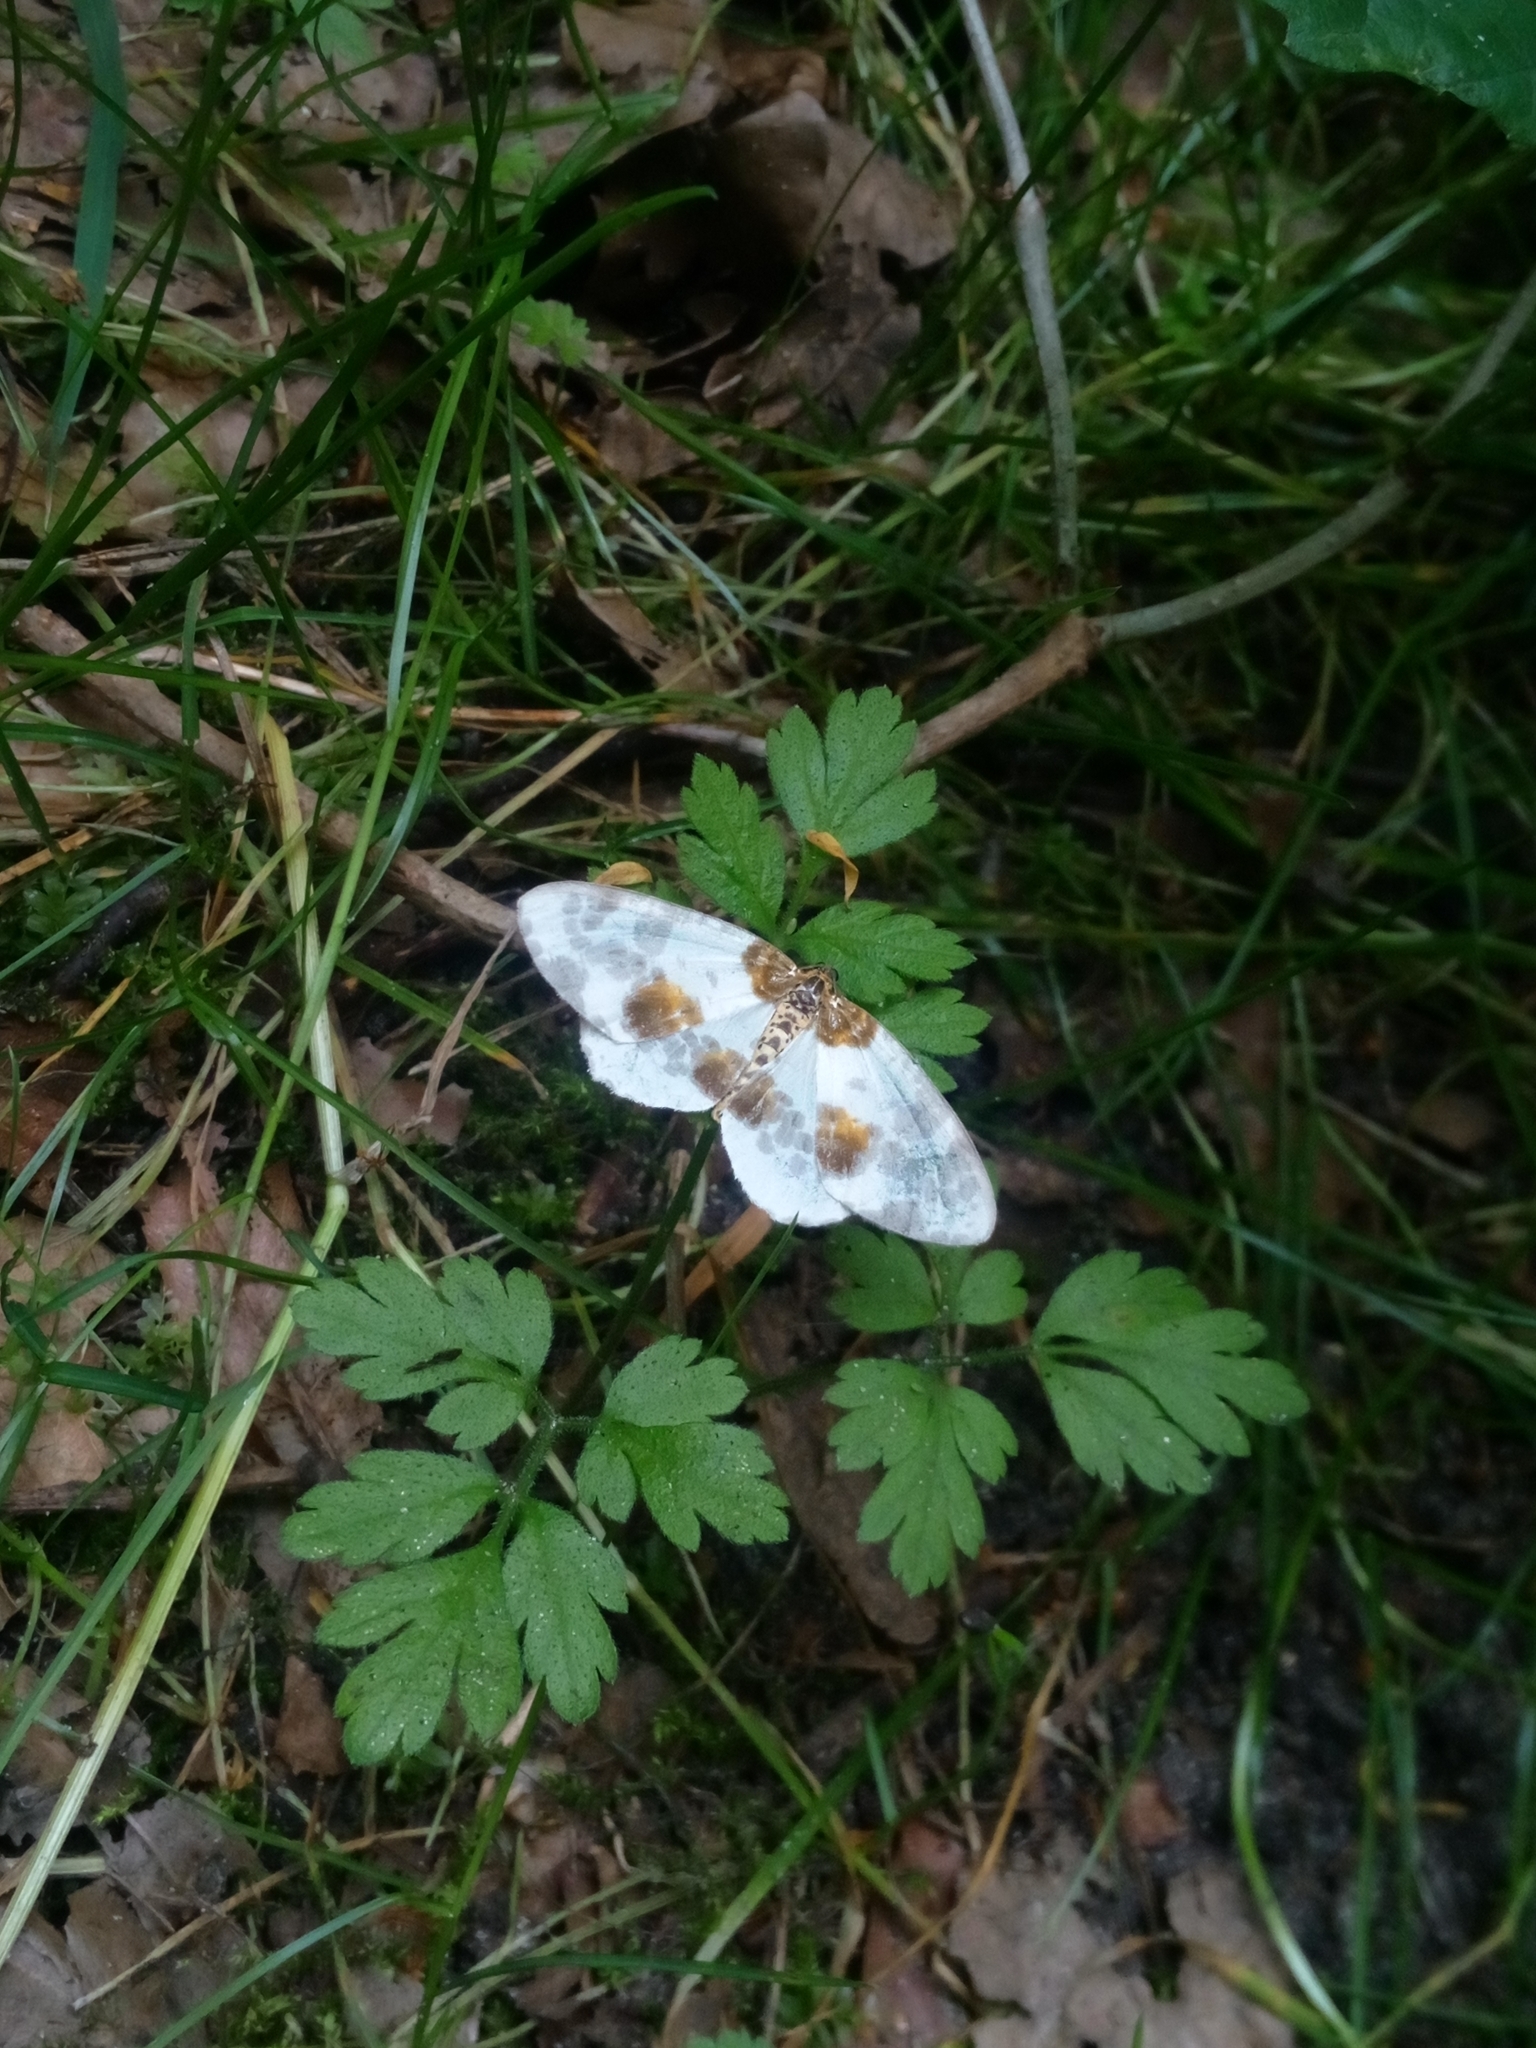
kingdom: Animalia
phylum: Arthropoda
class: Insecta
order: Lepidoptera
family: Geometridae
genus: Abraxas
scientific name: Abraxas sylvata
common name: Clouded magpie
